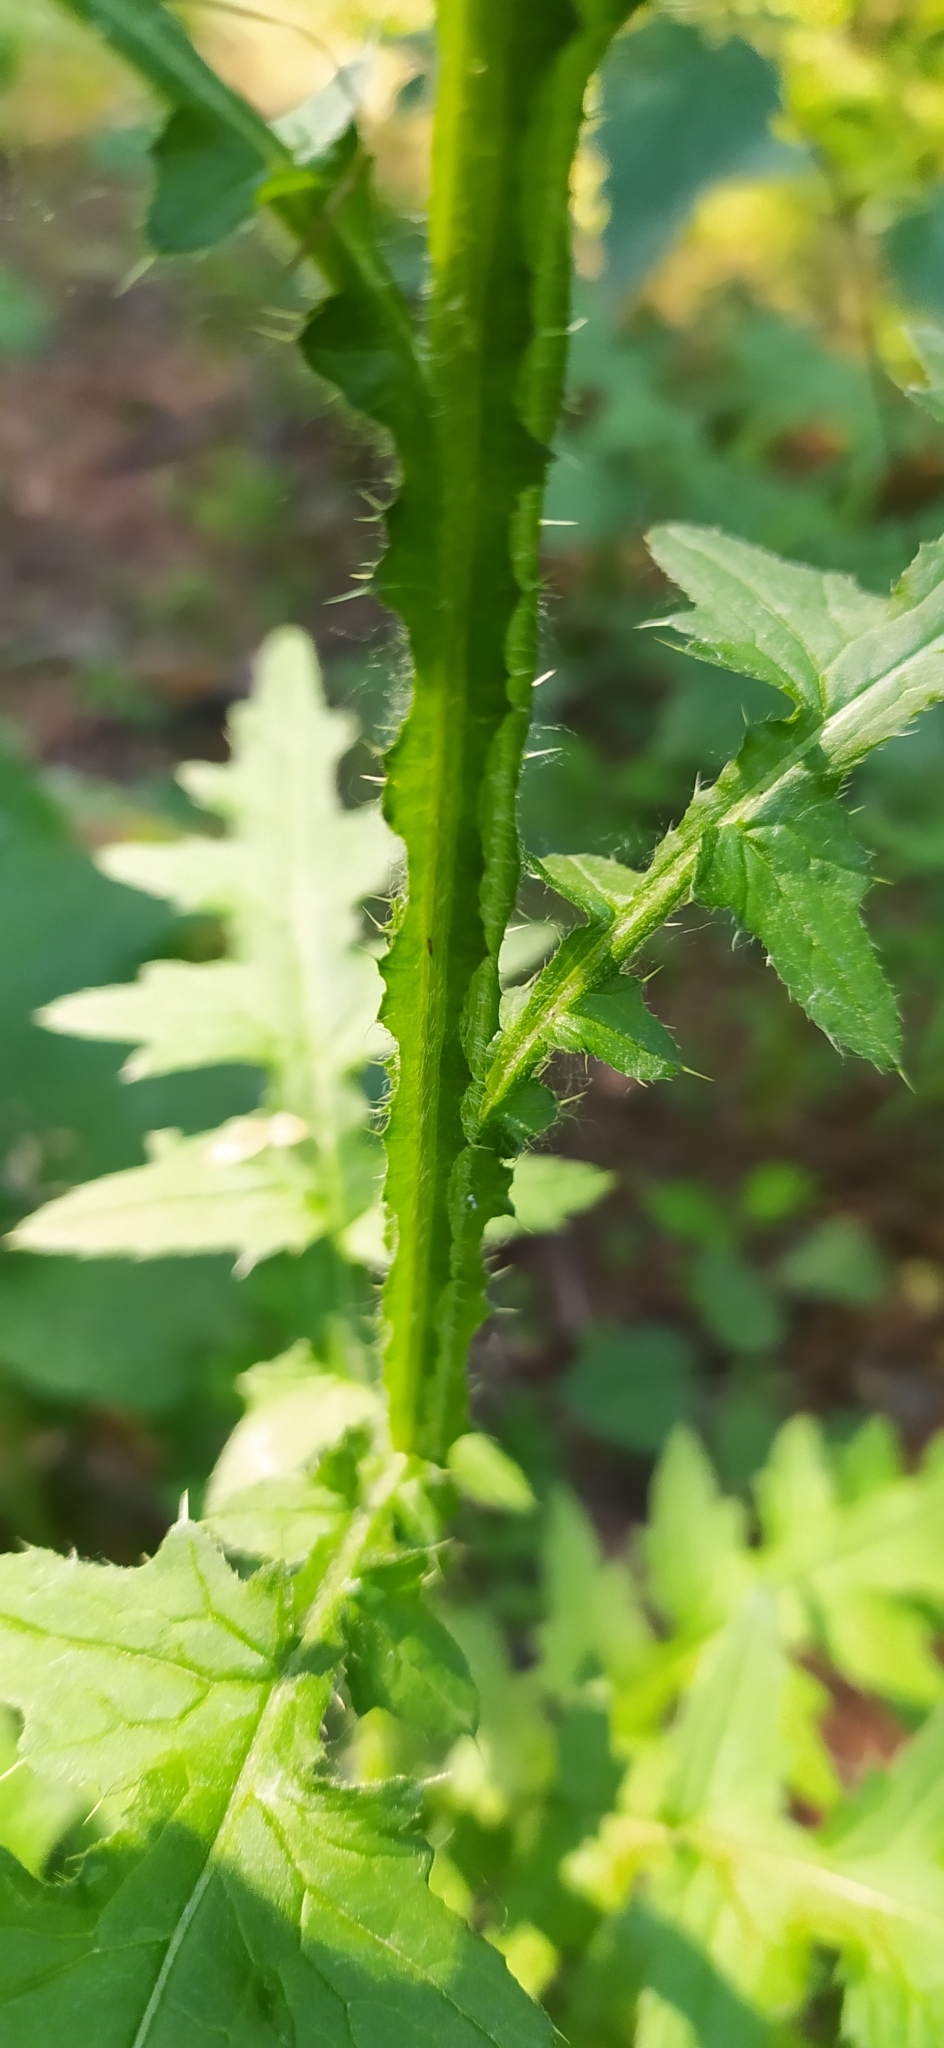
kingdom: Plantae
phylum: Tracheophyta
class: Magnoliopsida
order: Asterales
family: Asteraceae
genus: Carduus
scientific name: Carduus crispus
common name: Welted thistle
